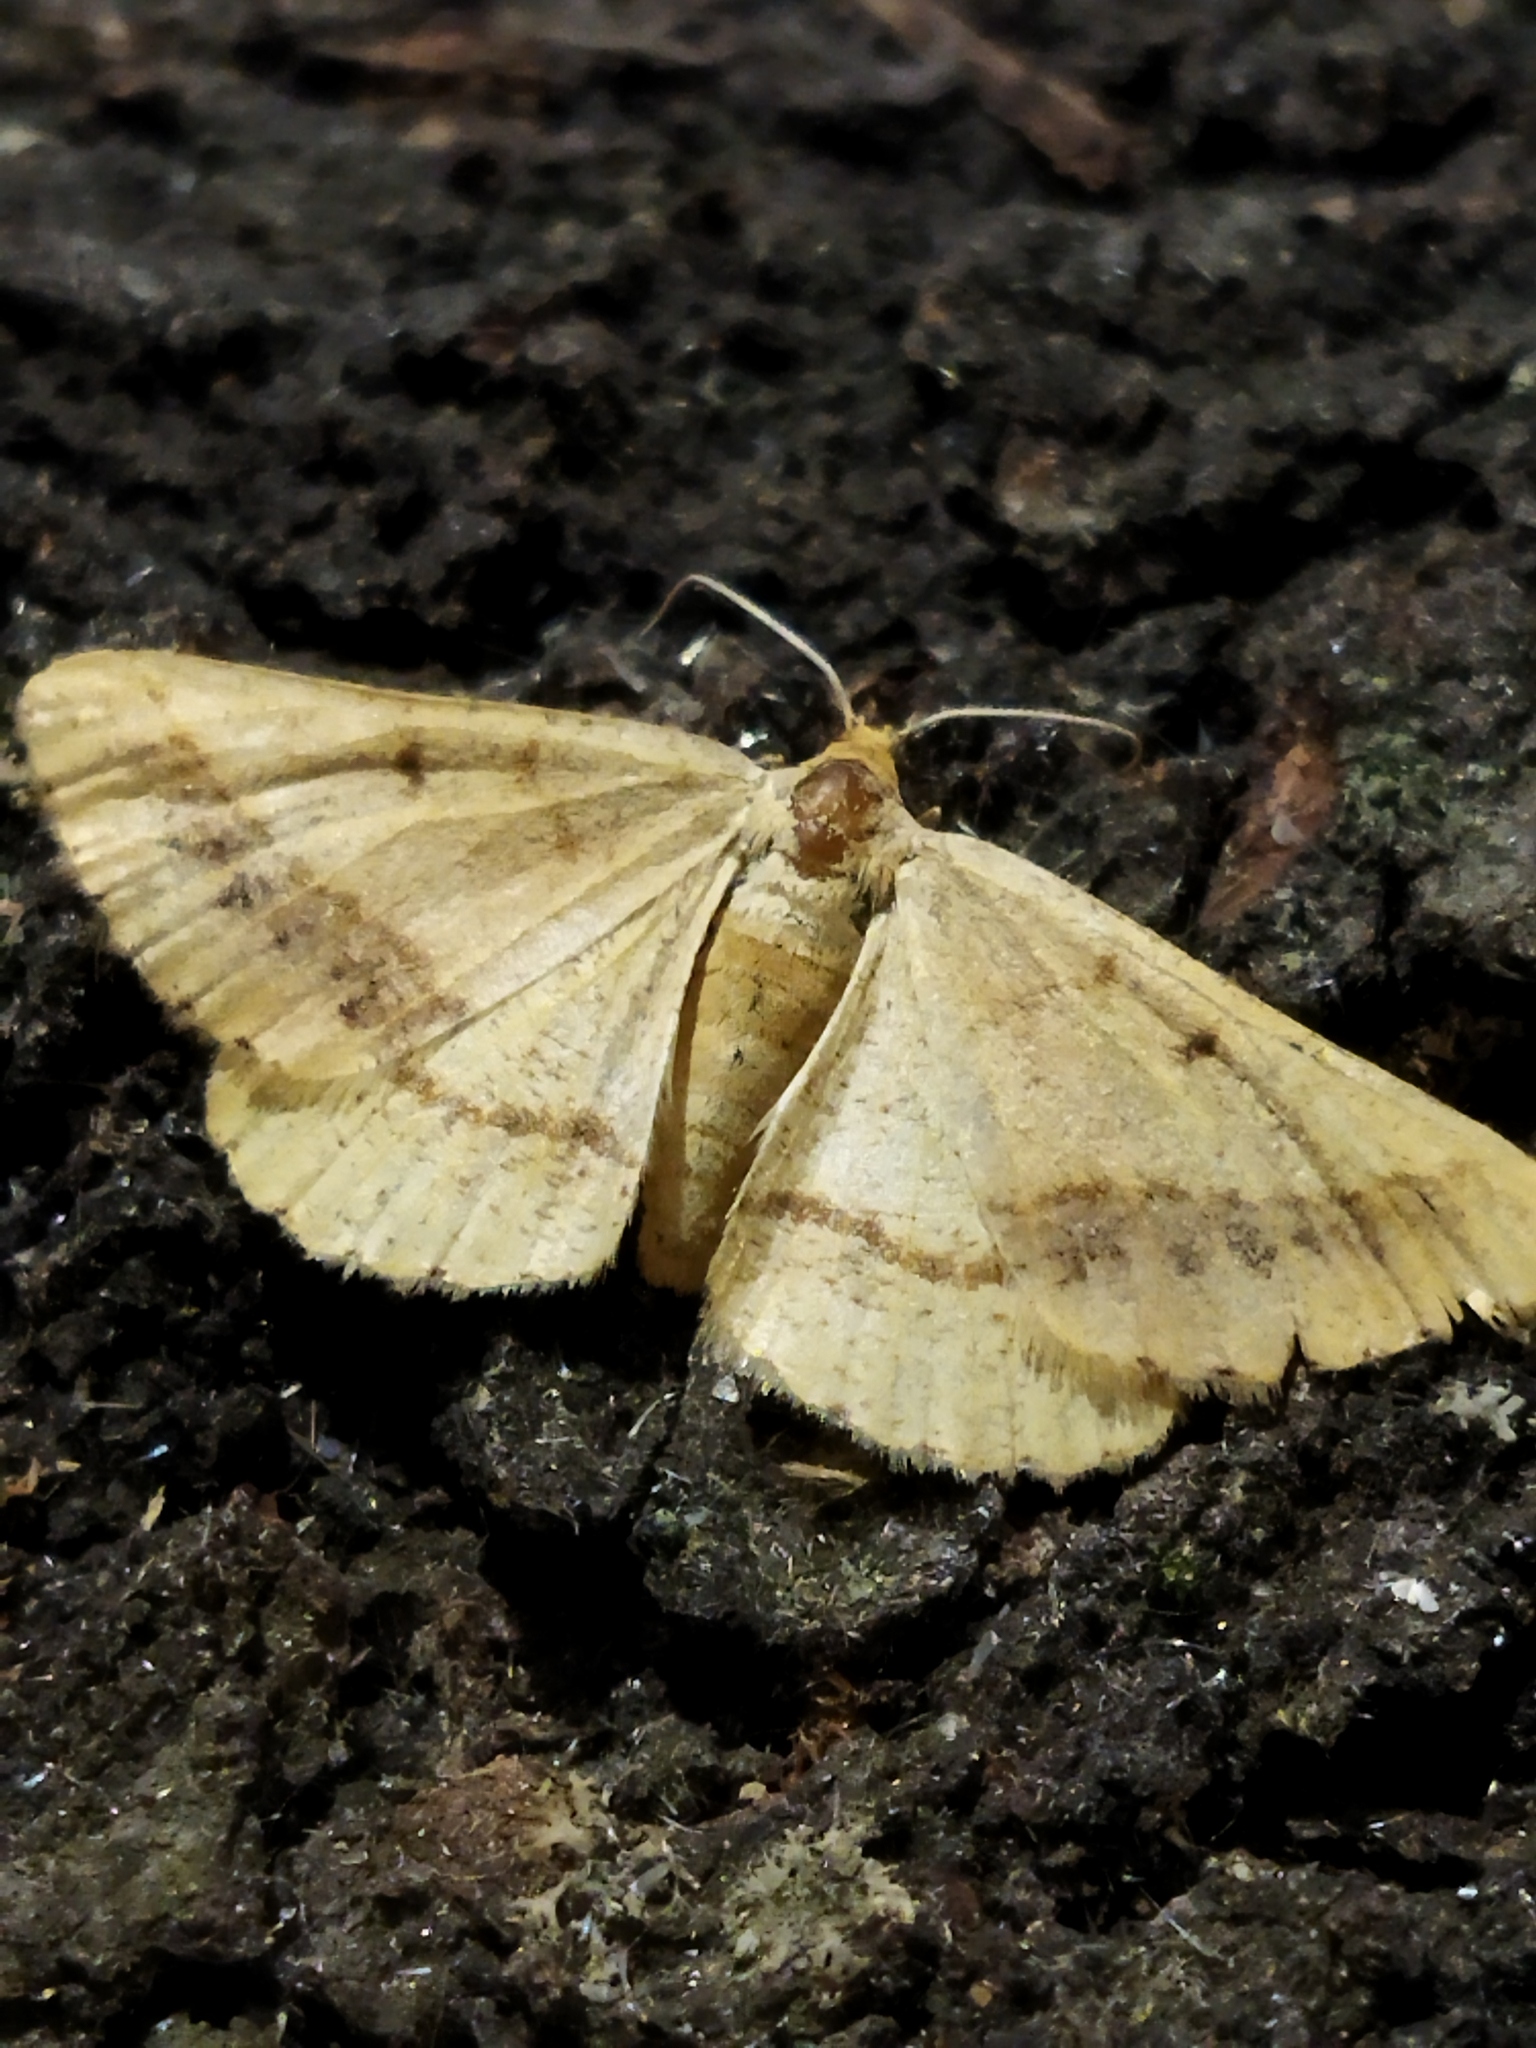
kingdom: Animalia
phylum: Arthropoda
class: Insecta
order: Lepidoptera
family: Geometridae
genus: Tephrina
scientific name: Tephrina arenacearia
